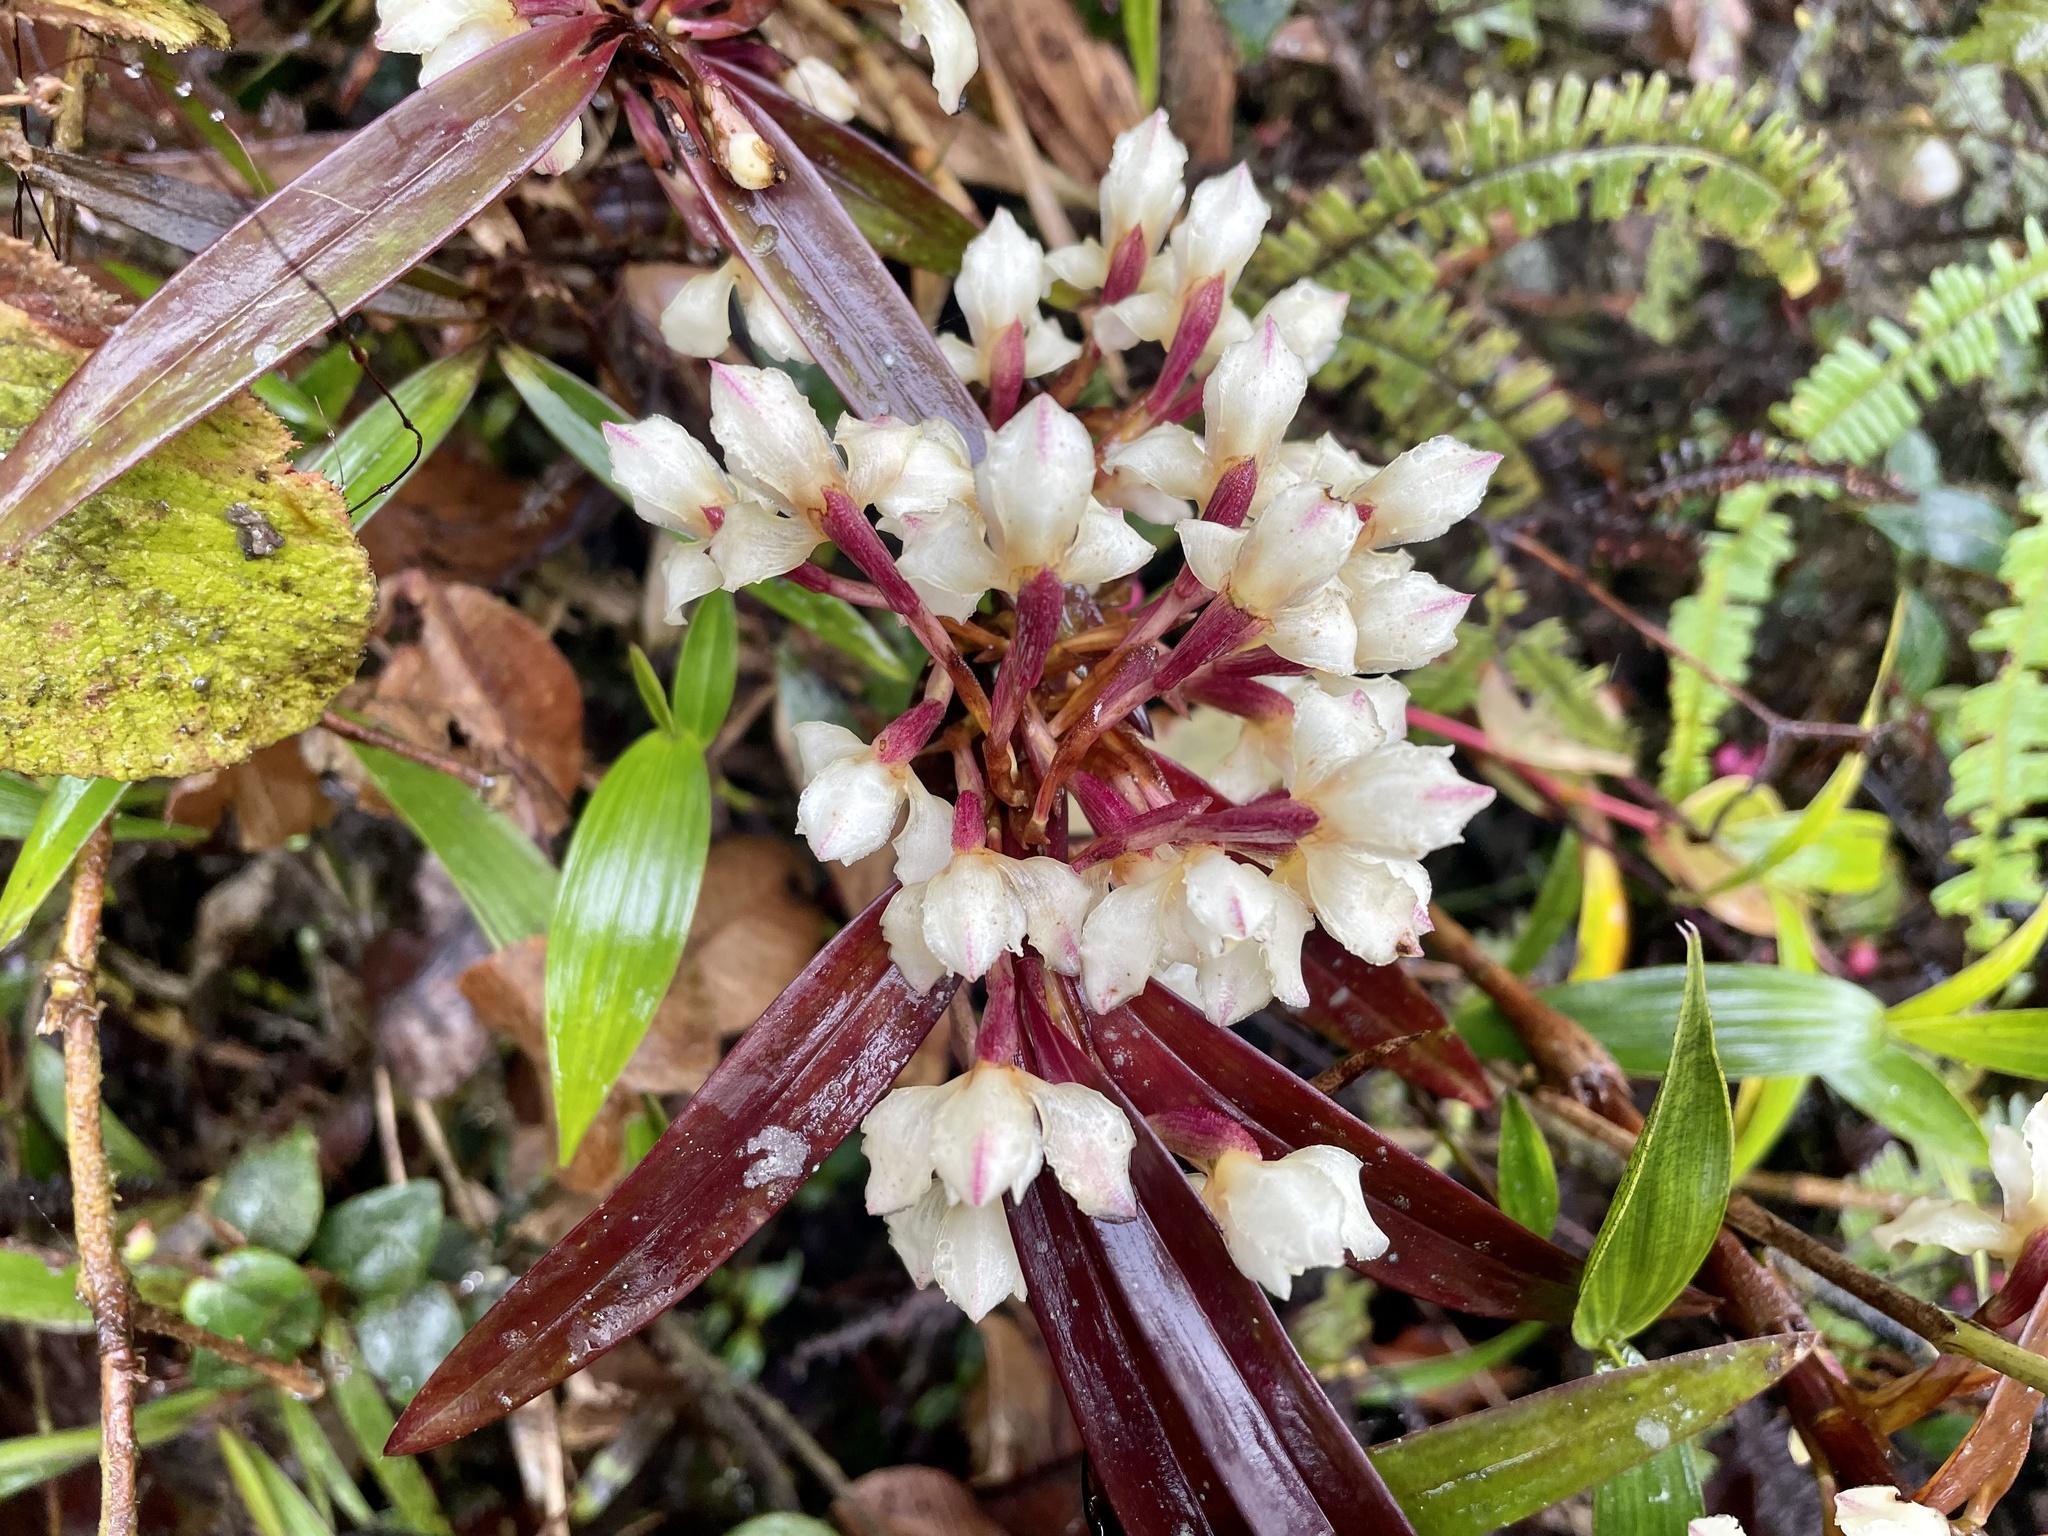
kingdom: Plantae
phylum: Tracheophyta
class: Liliopsida
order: Asparagales
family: Orchidaceae
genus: Maxillaria
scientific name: Maxillaria embreei
